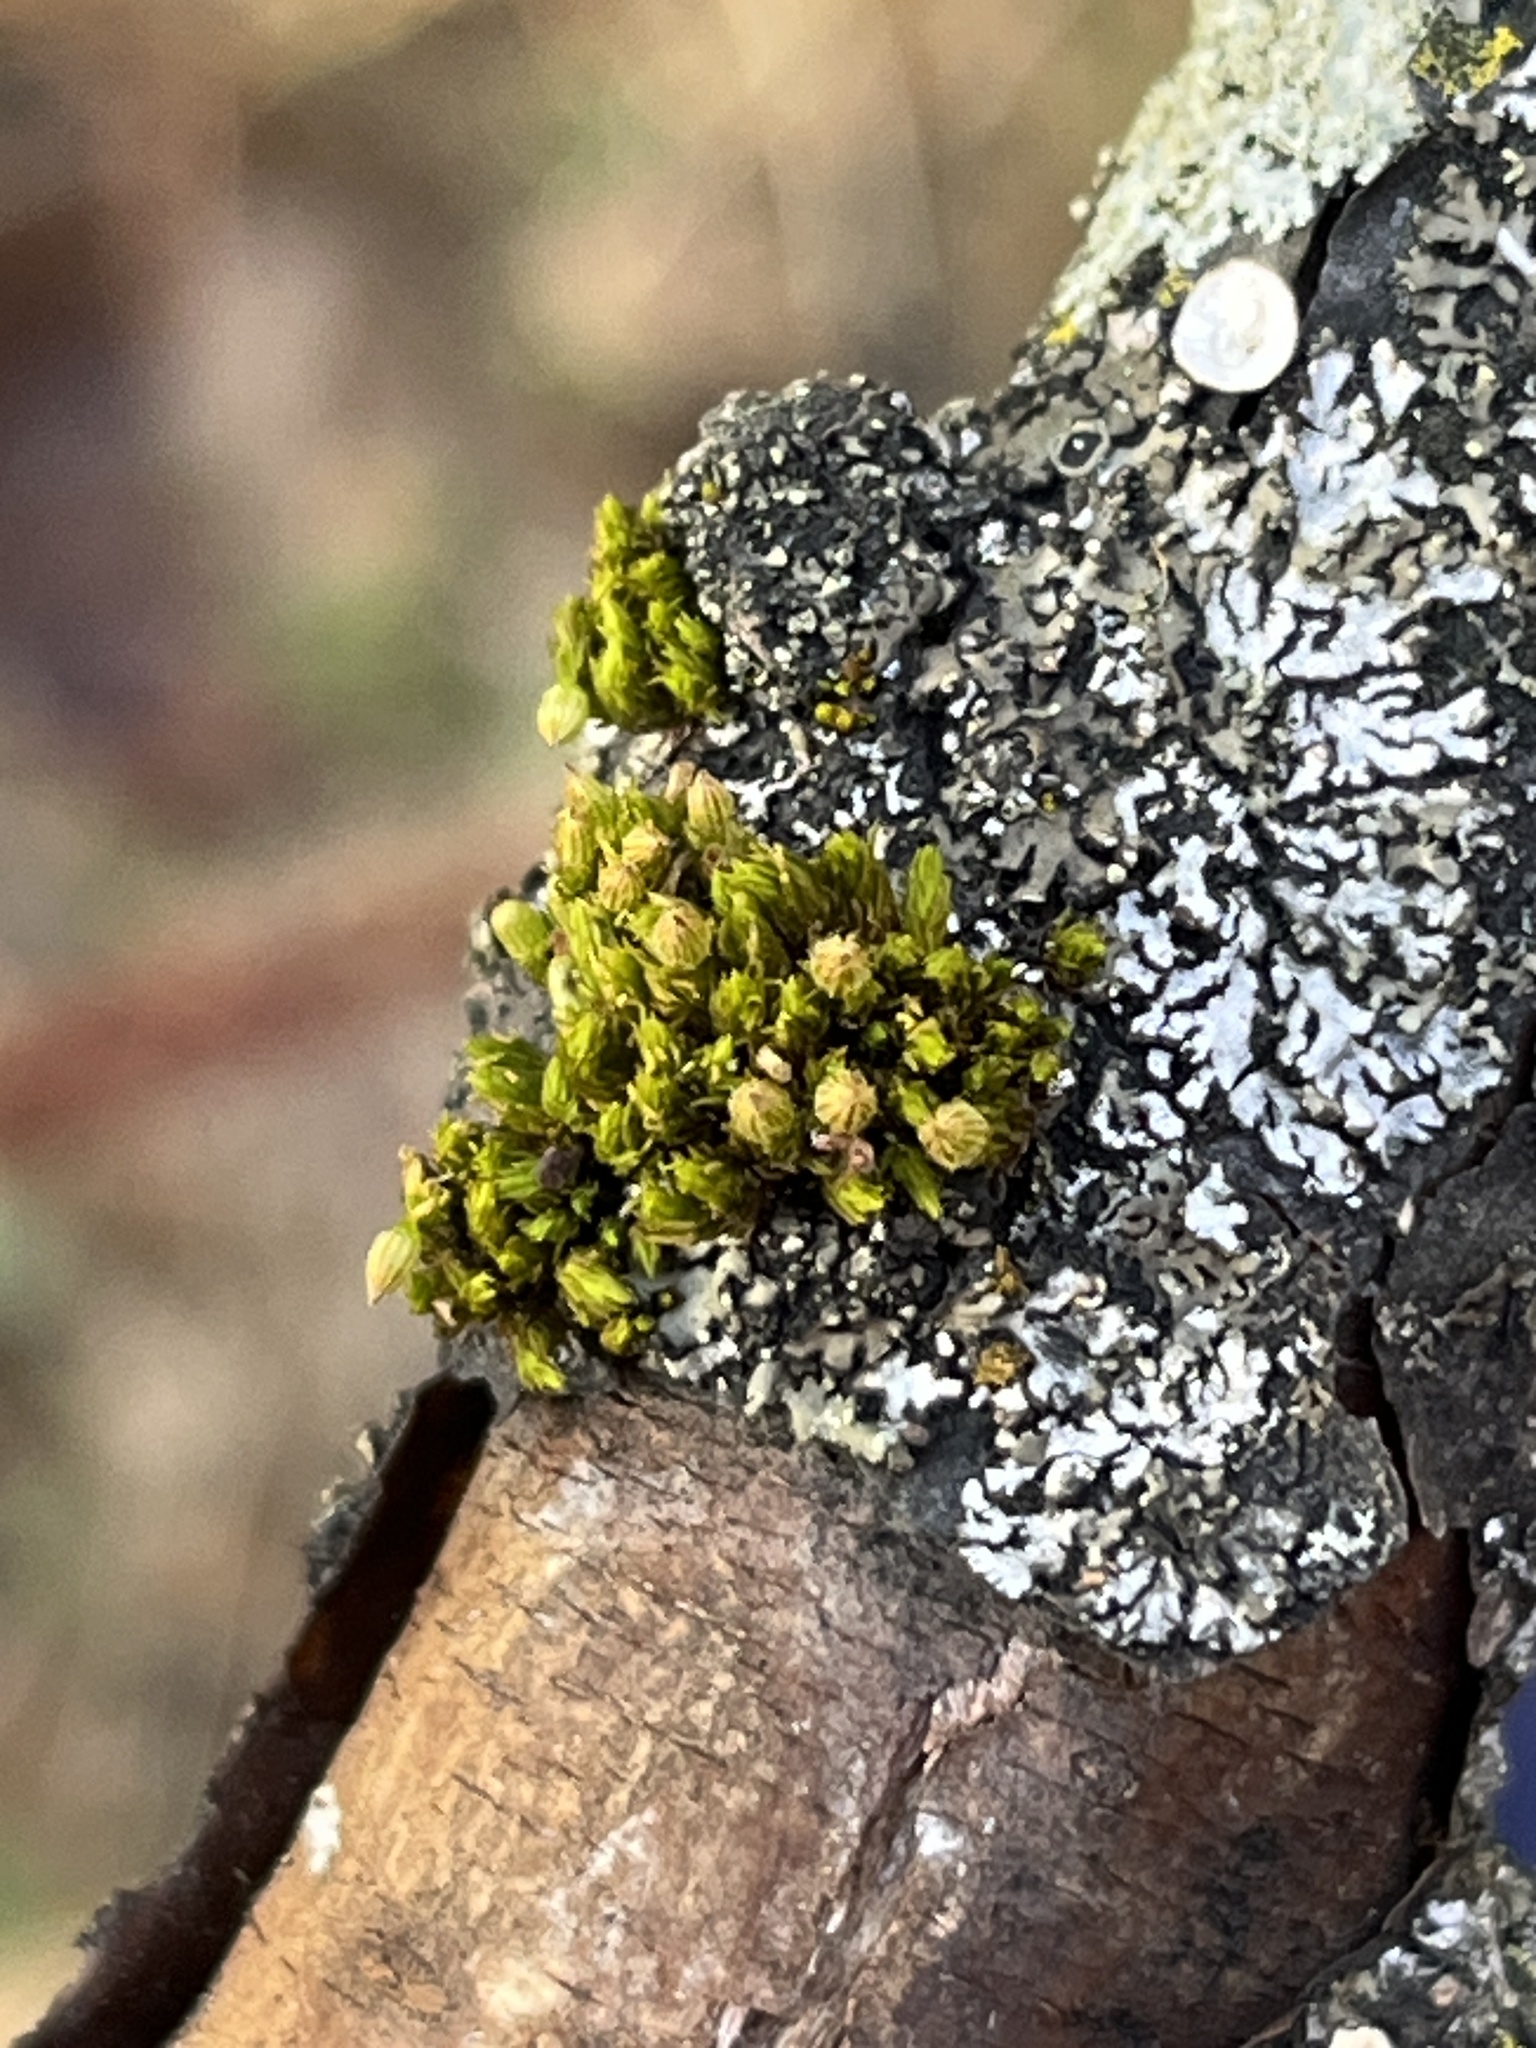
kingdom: Plantae
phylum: Bryophyta
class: Bryopsida
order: Orthotrichales
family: Orthotrichaceae
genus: Lewinskya
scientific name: Lewinskya sordida
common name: Dark-green bristle moss
